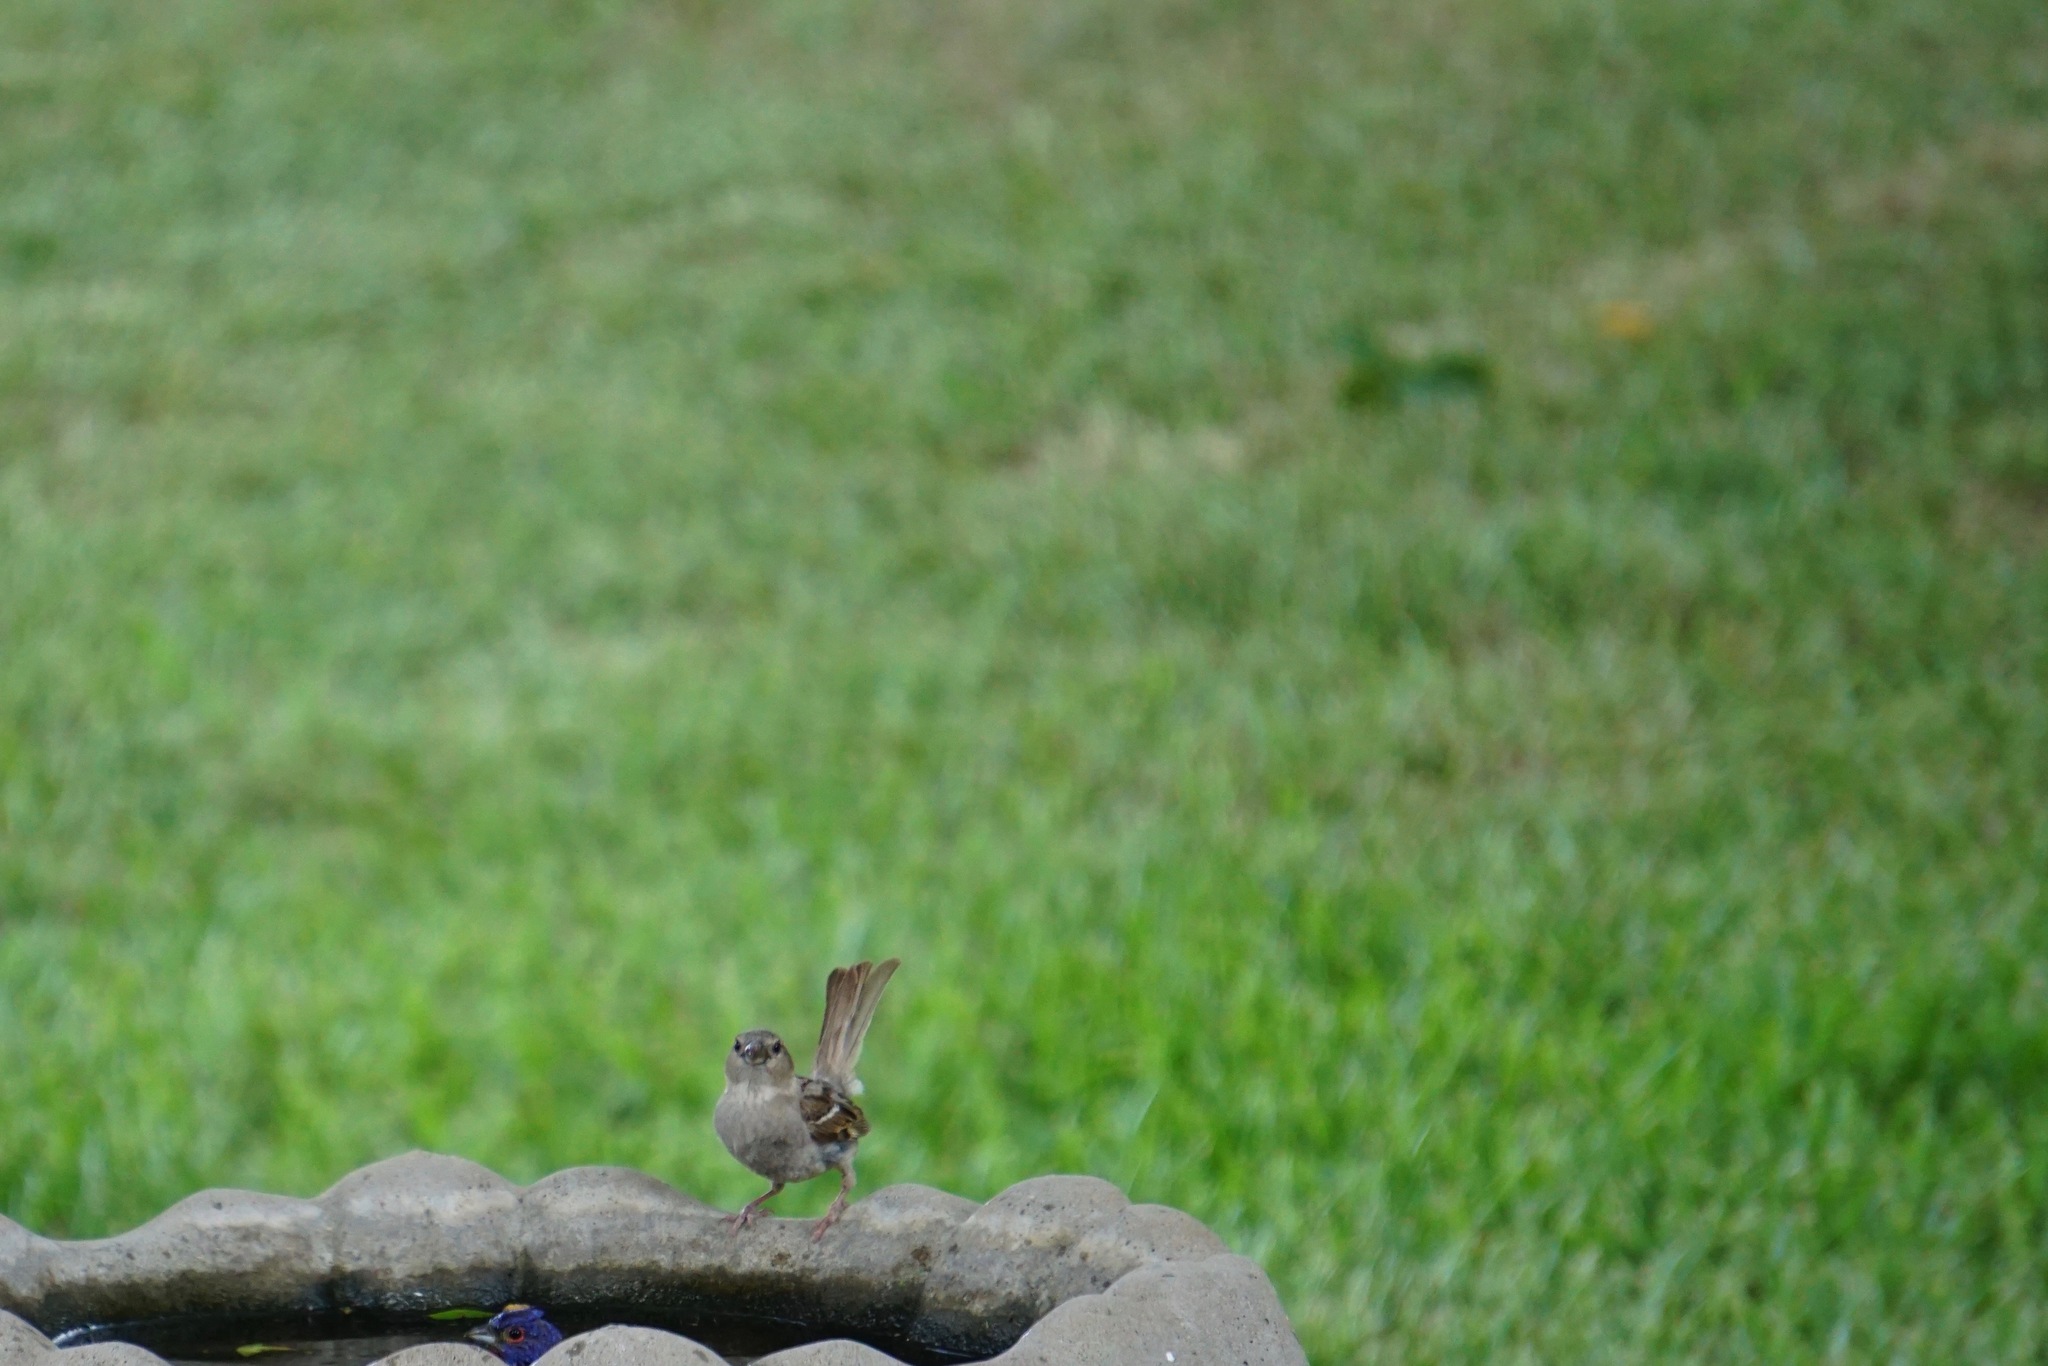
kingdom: Animalia
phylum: Chordata
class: Aves
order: Passeriformes
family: Passeridae
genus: Passer
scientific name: Passer domesticus
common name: House sparrow
